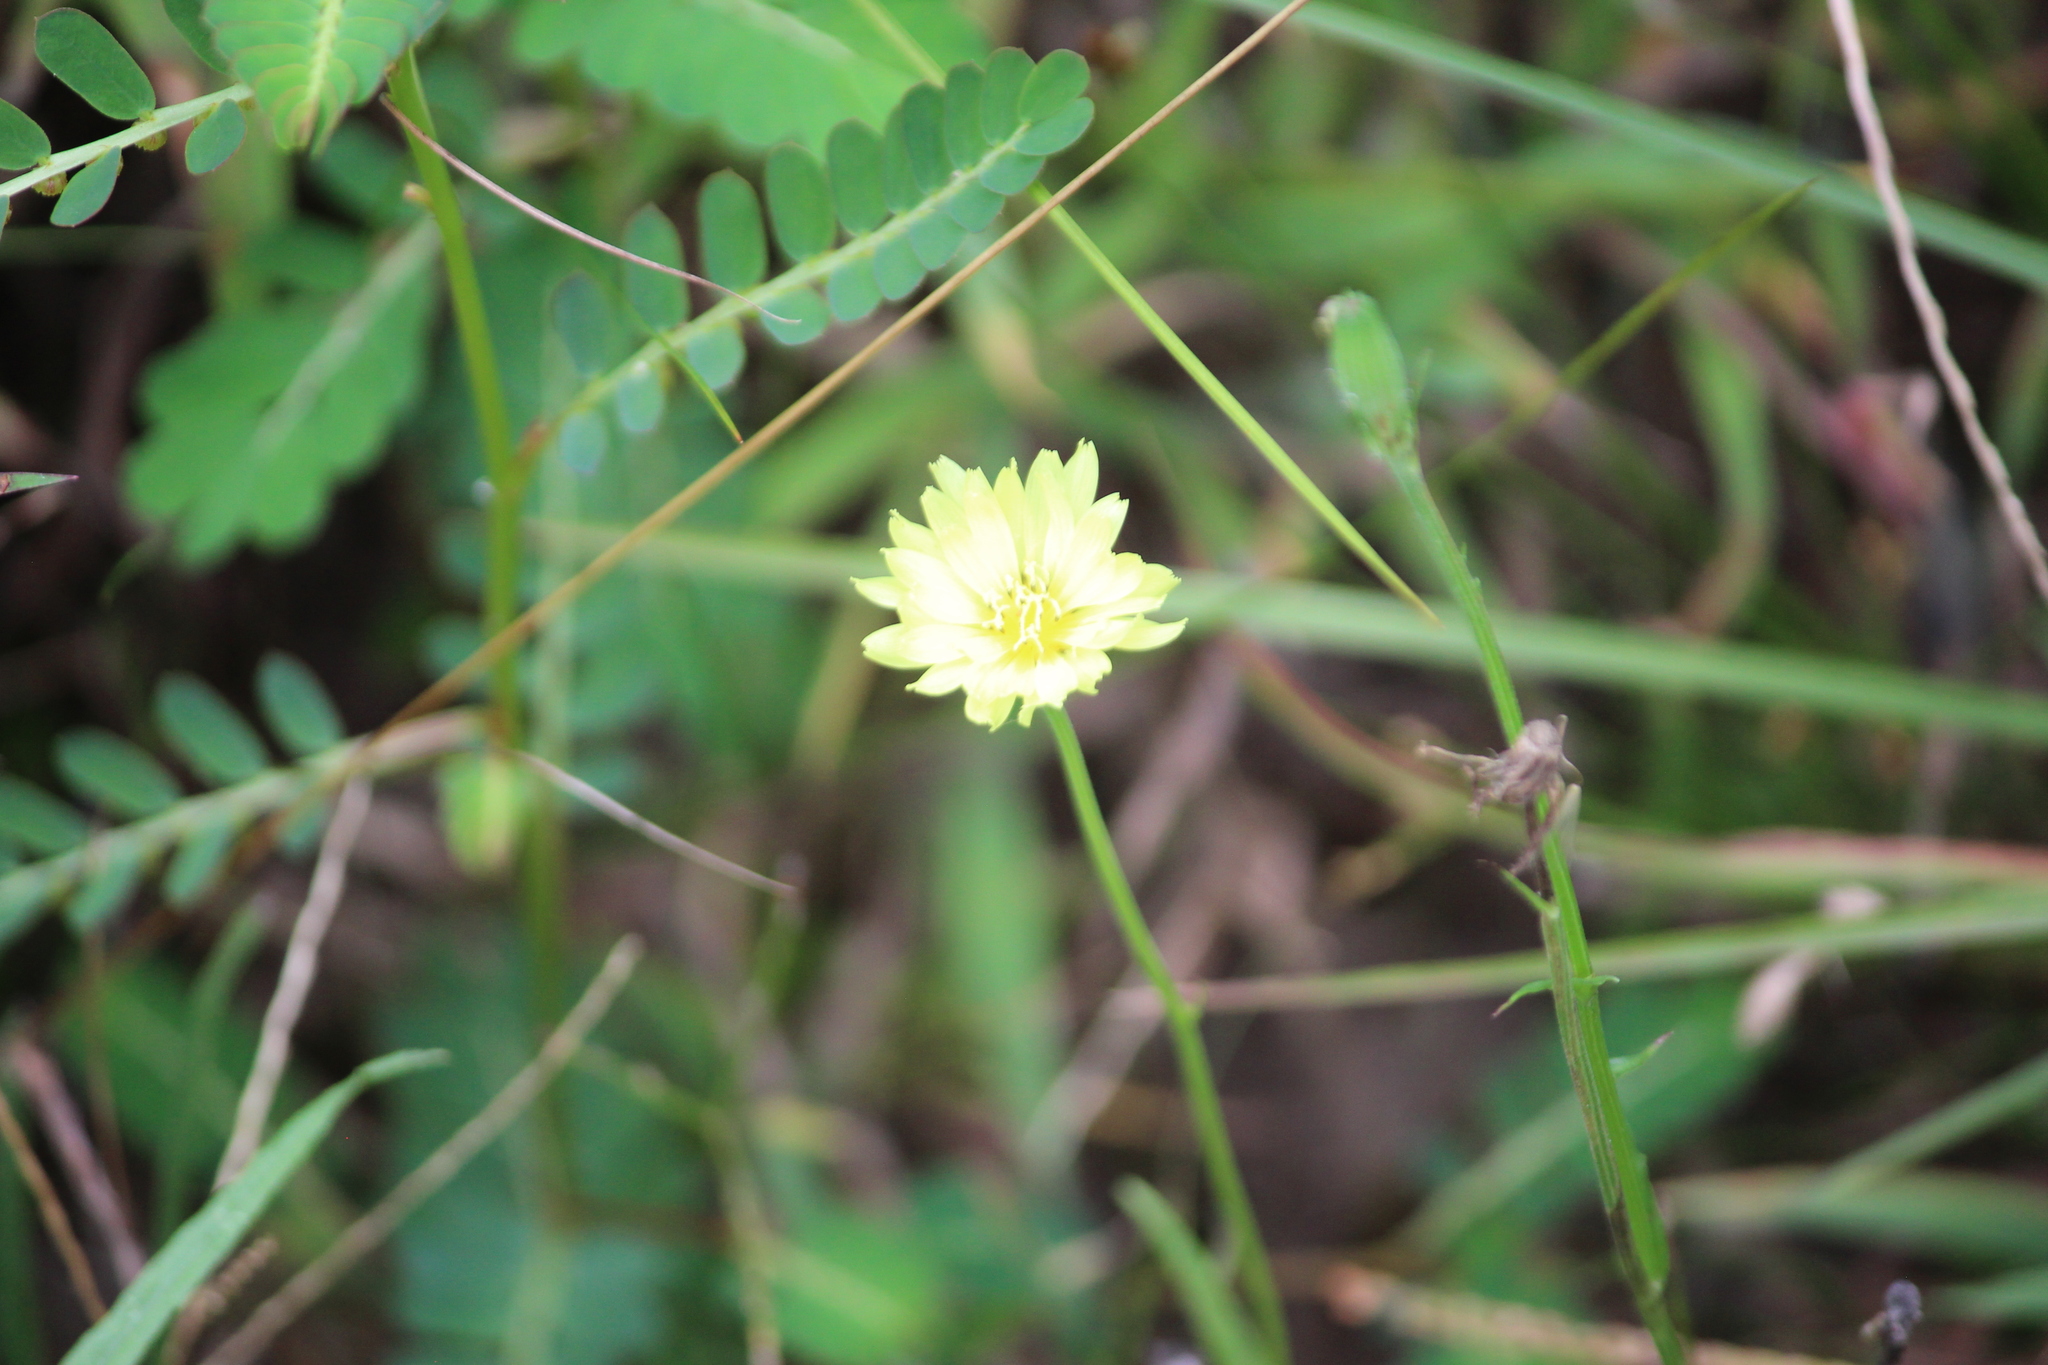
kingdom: Plantae
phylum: Tracheophyta
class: Magnoliopsida
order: Asterales
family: Asteraceae
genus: Pyrrhopappus
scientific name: Pyrrhopappus carolinianus
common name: Carolina desert-chicory
